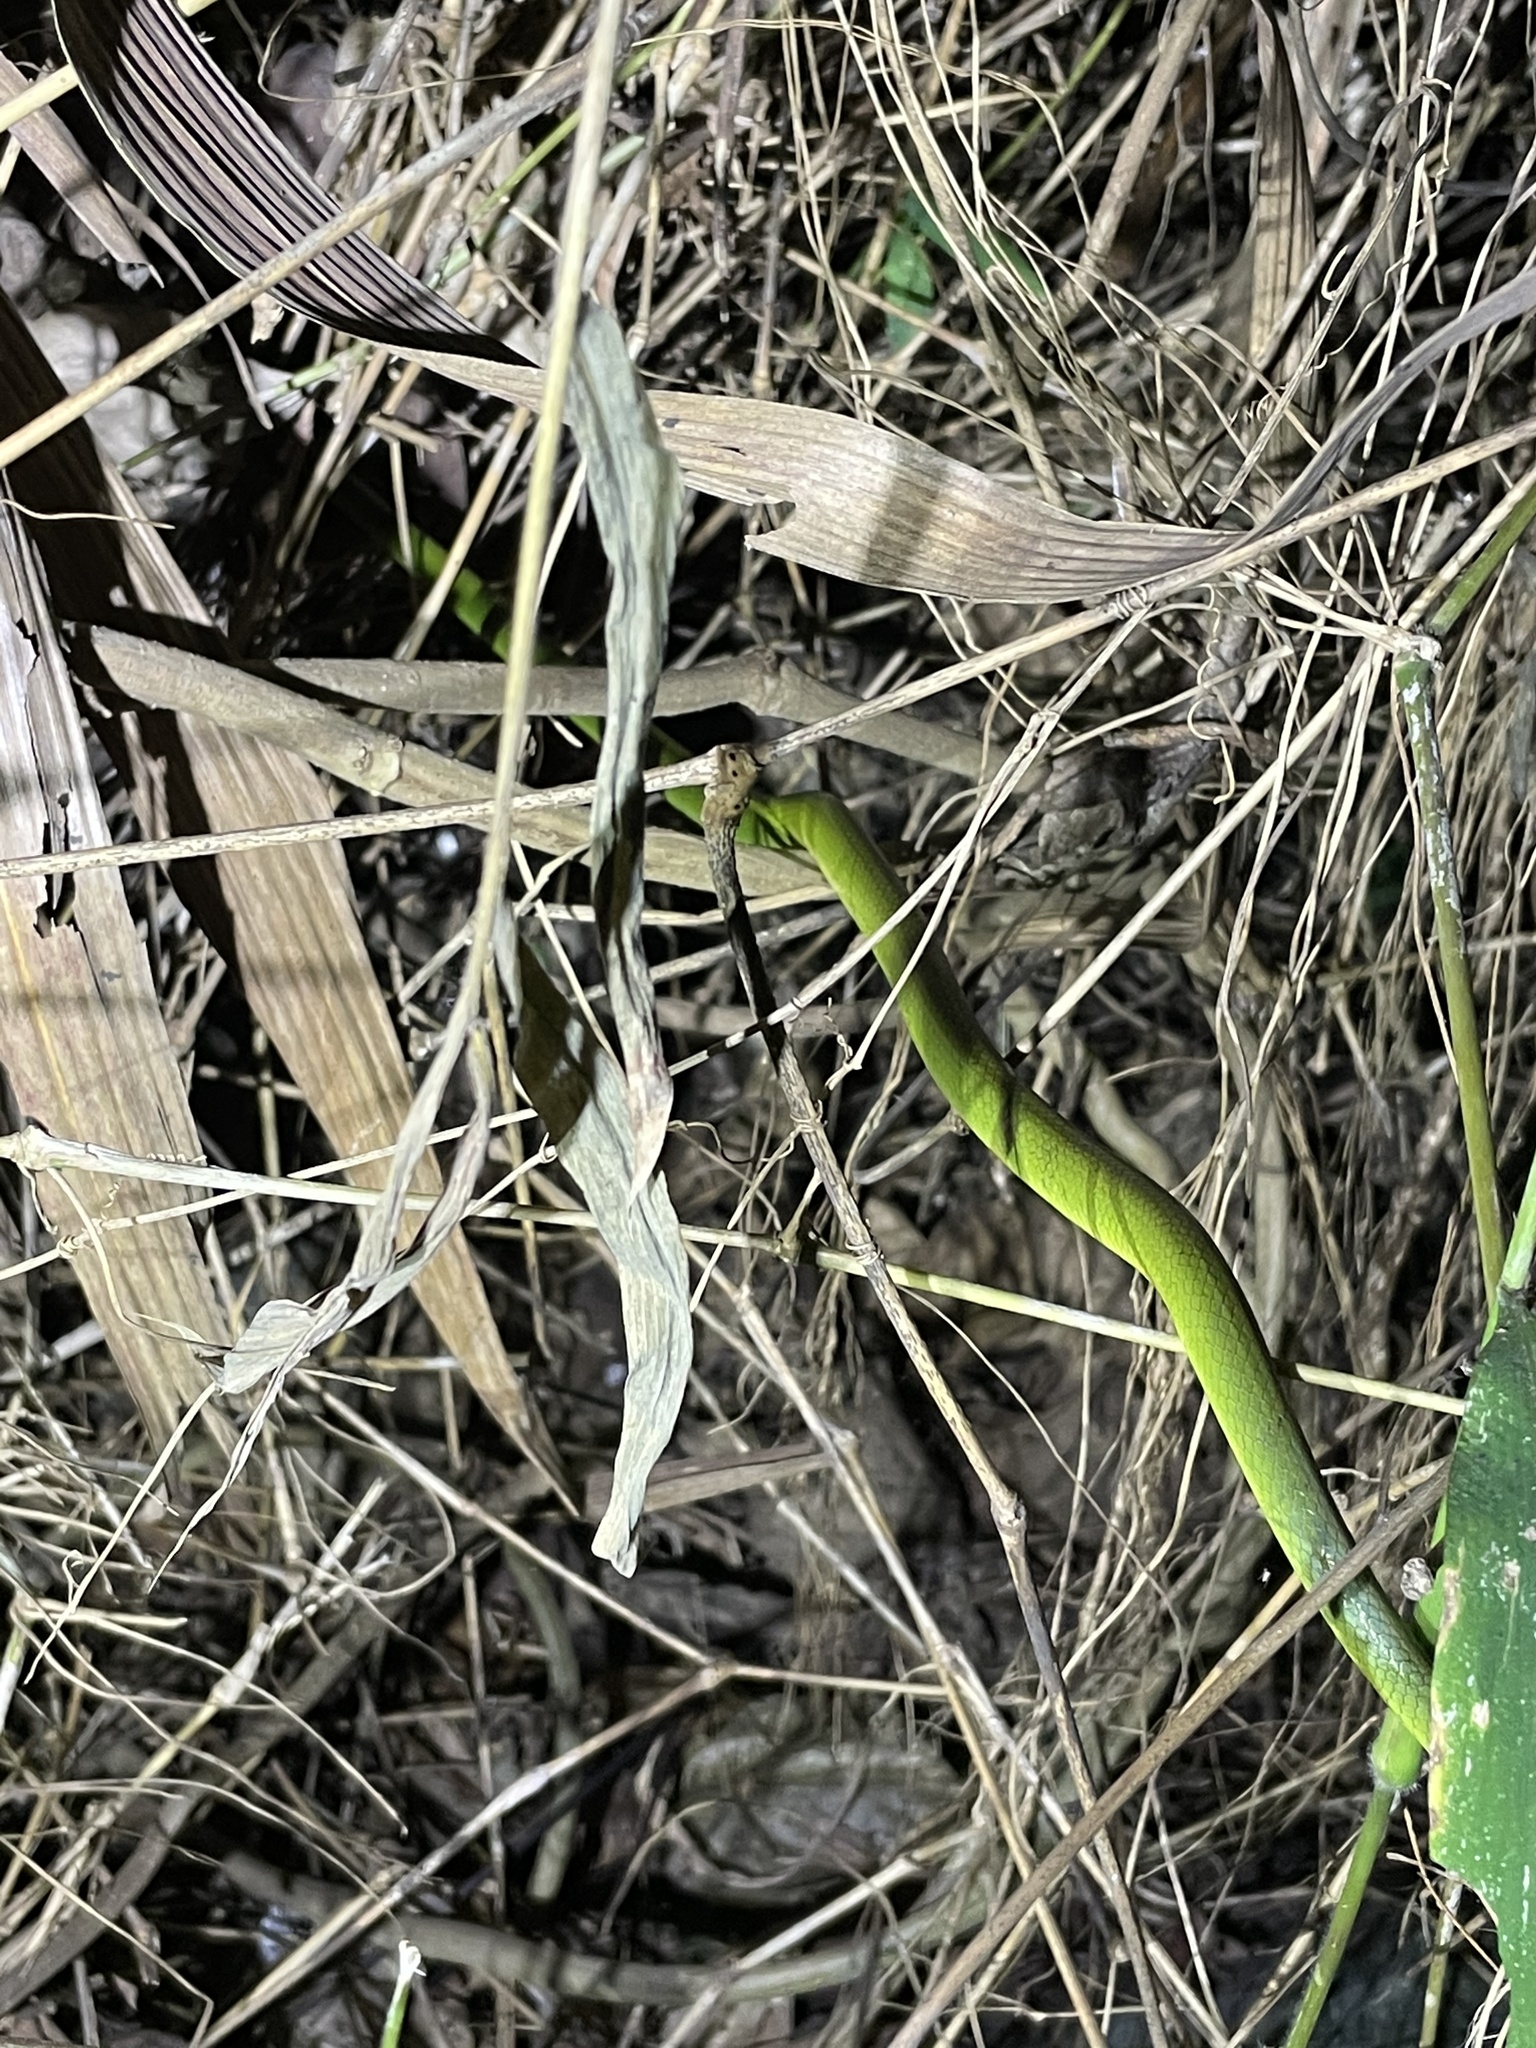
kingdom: Animalia
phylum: Chordata
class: Squamata
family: Colubridae
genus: Ptyas
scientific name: Ptyas major
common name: Chinese green snake
